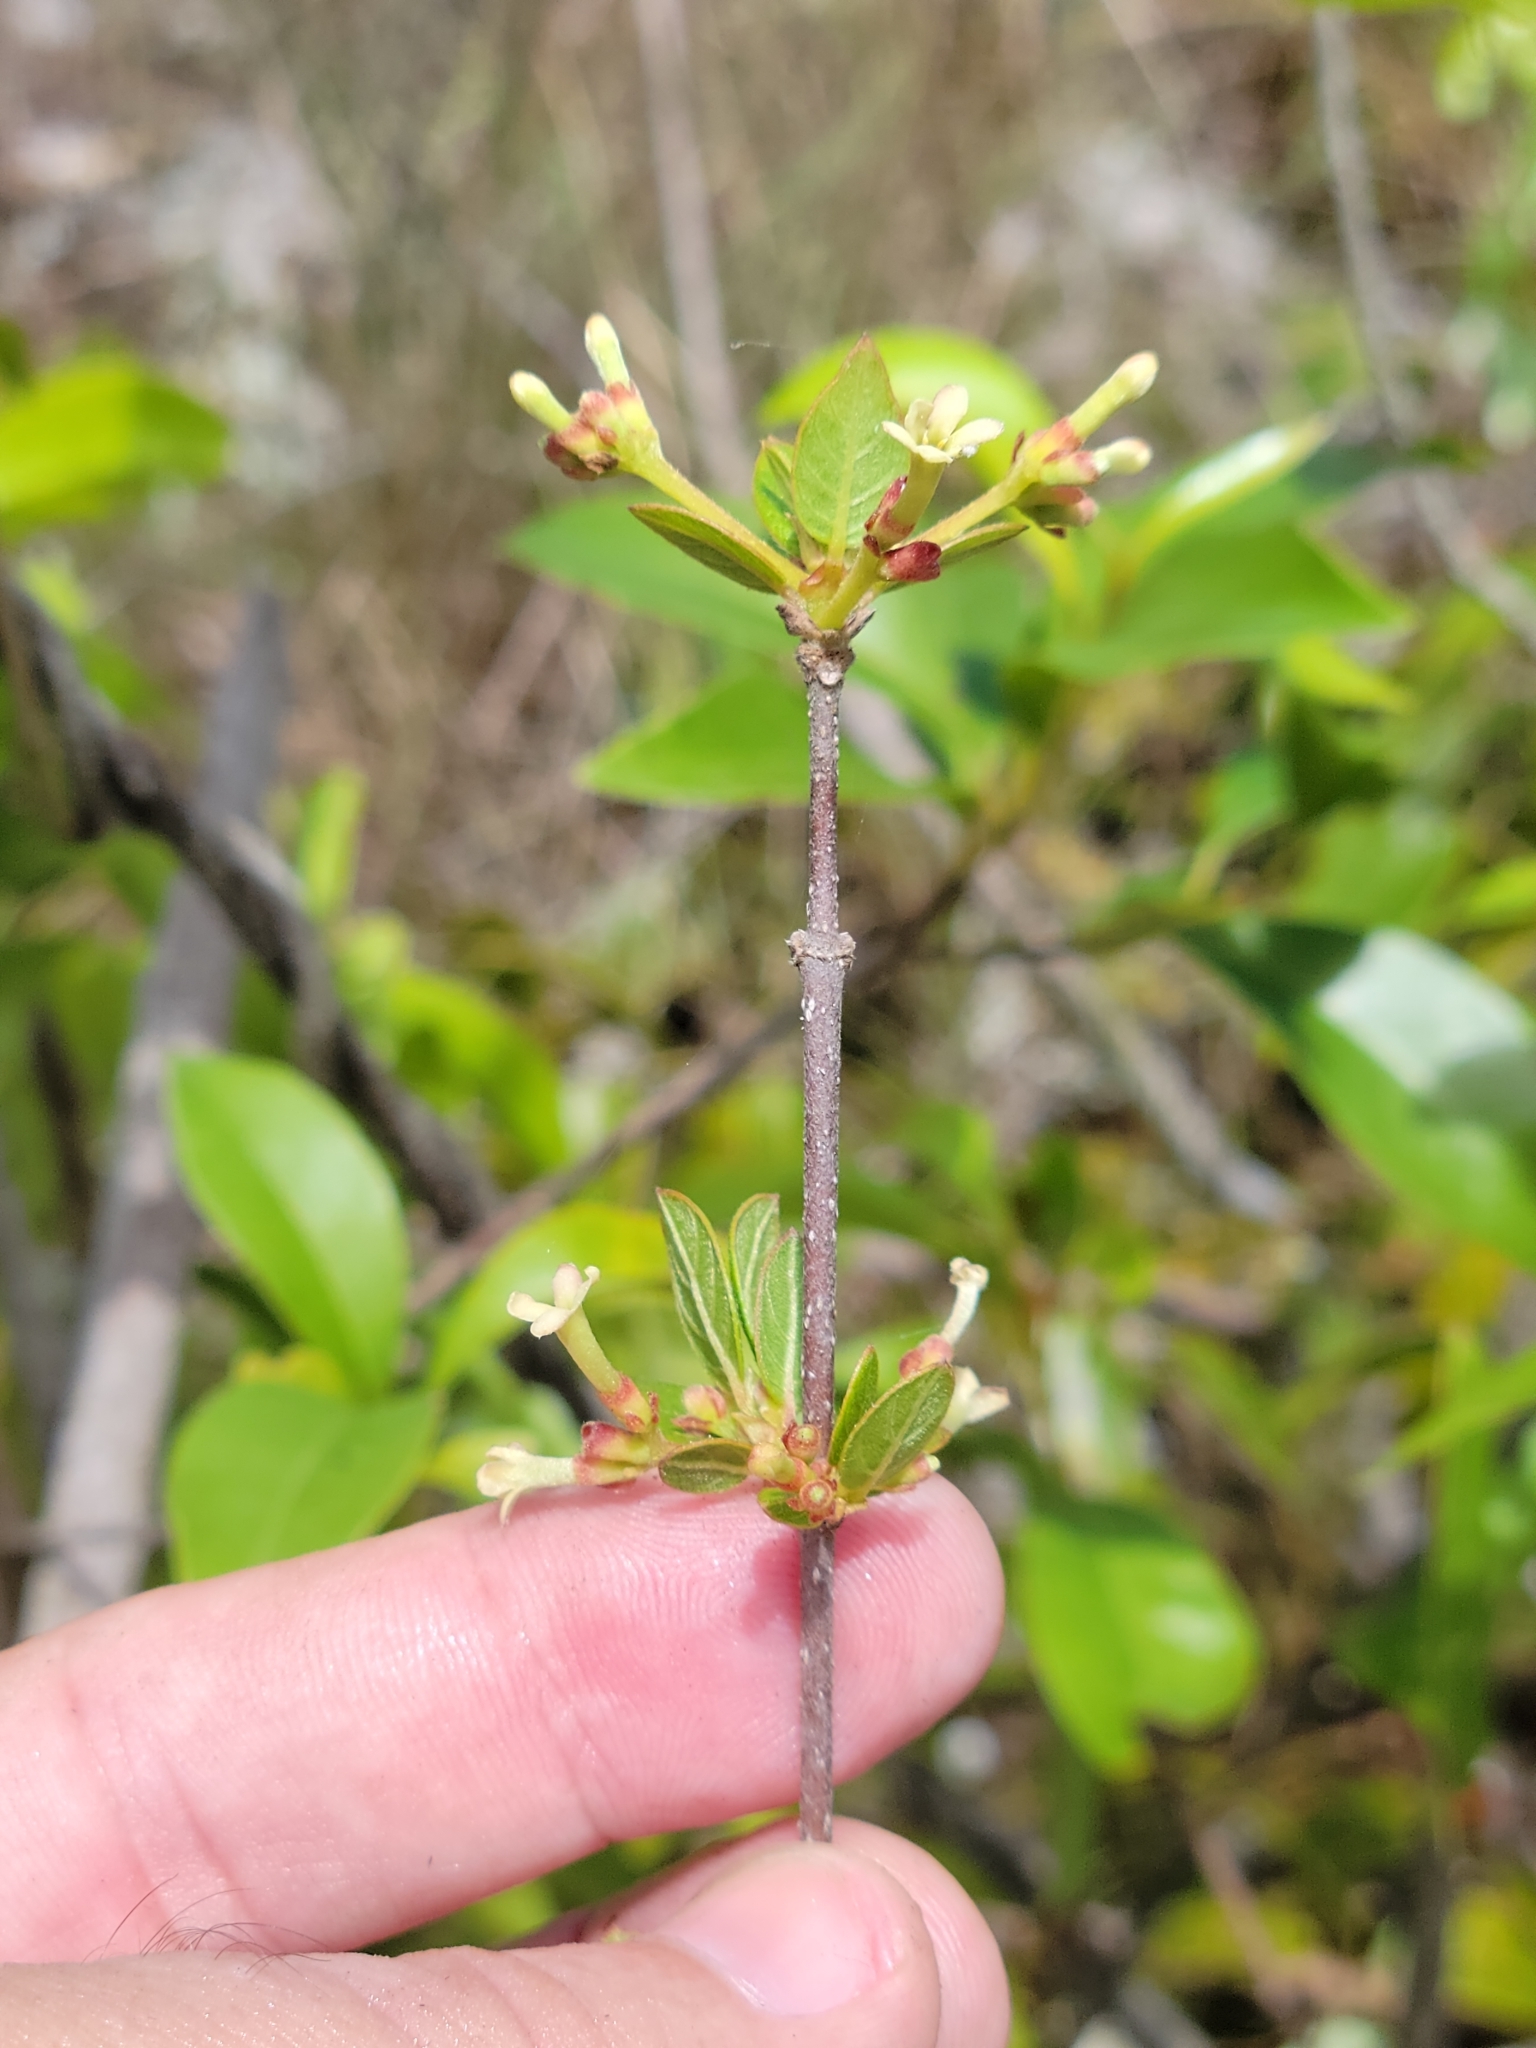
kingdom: Plantae
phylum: Tracheophyta
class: Magnoliopsida
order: Gentianales
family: Rubiaceae
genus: Guettarda
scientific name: Guettarda elliptica
